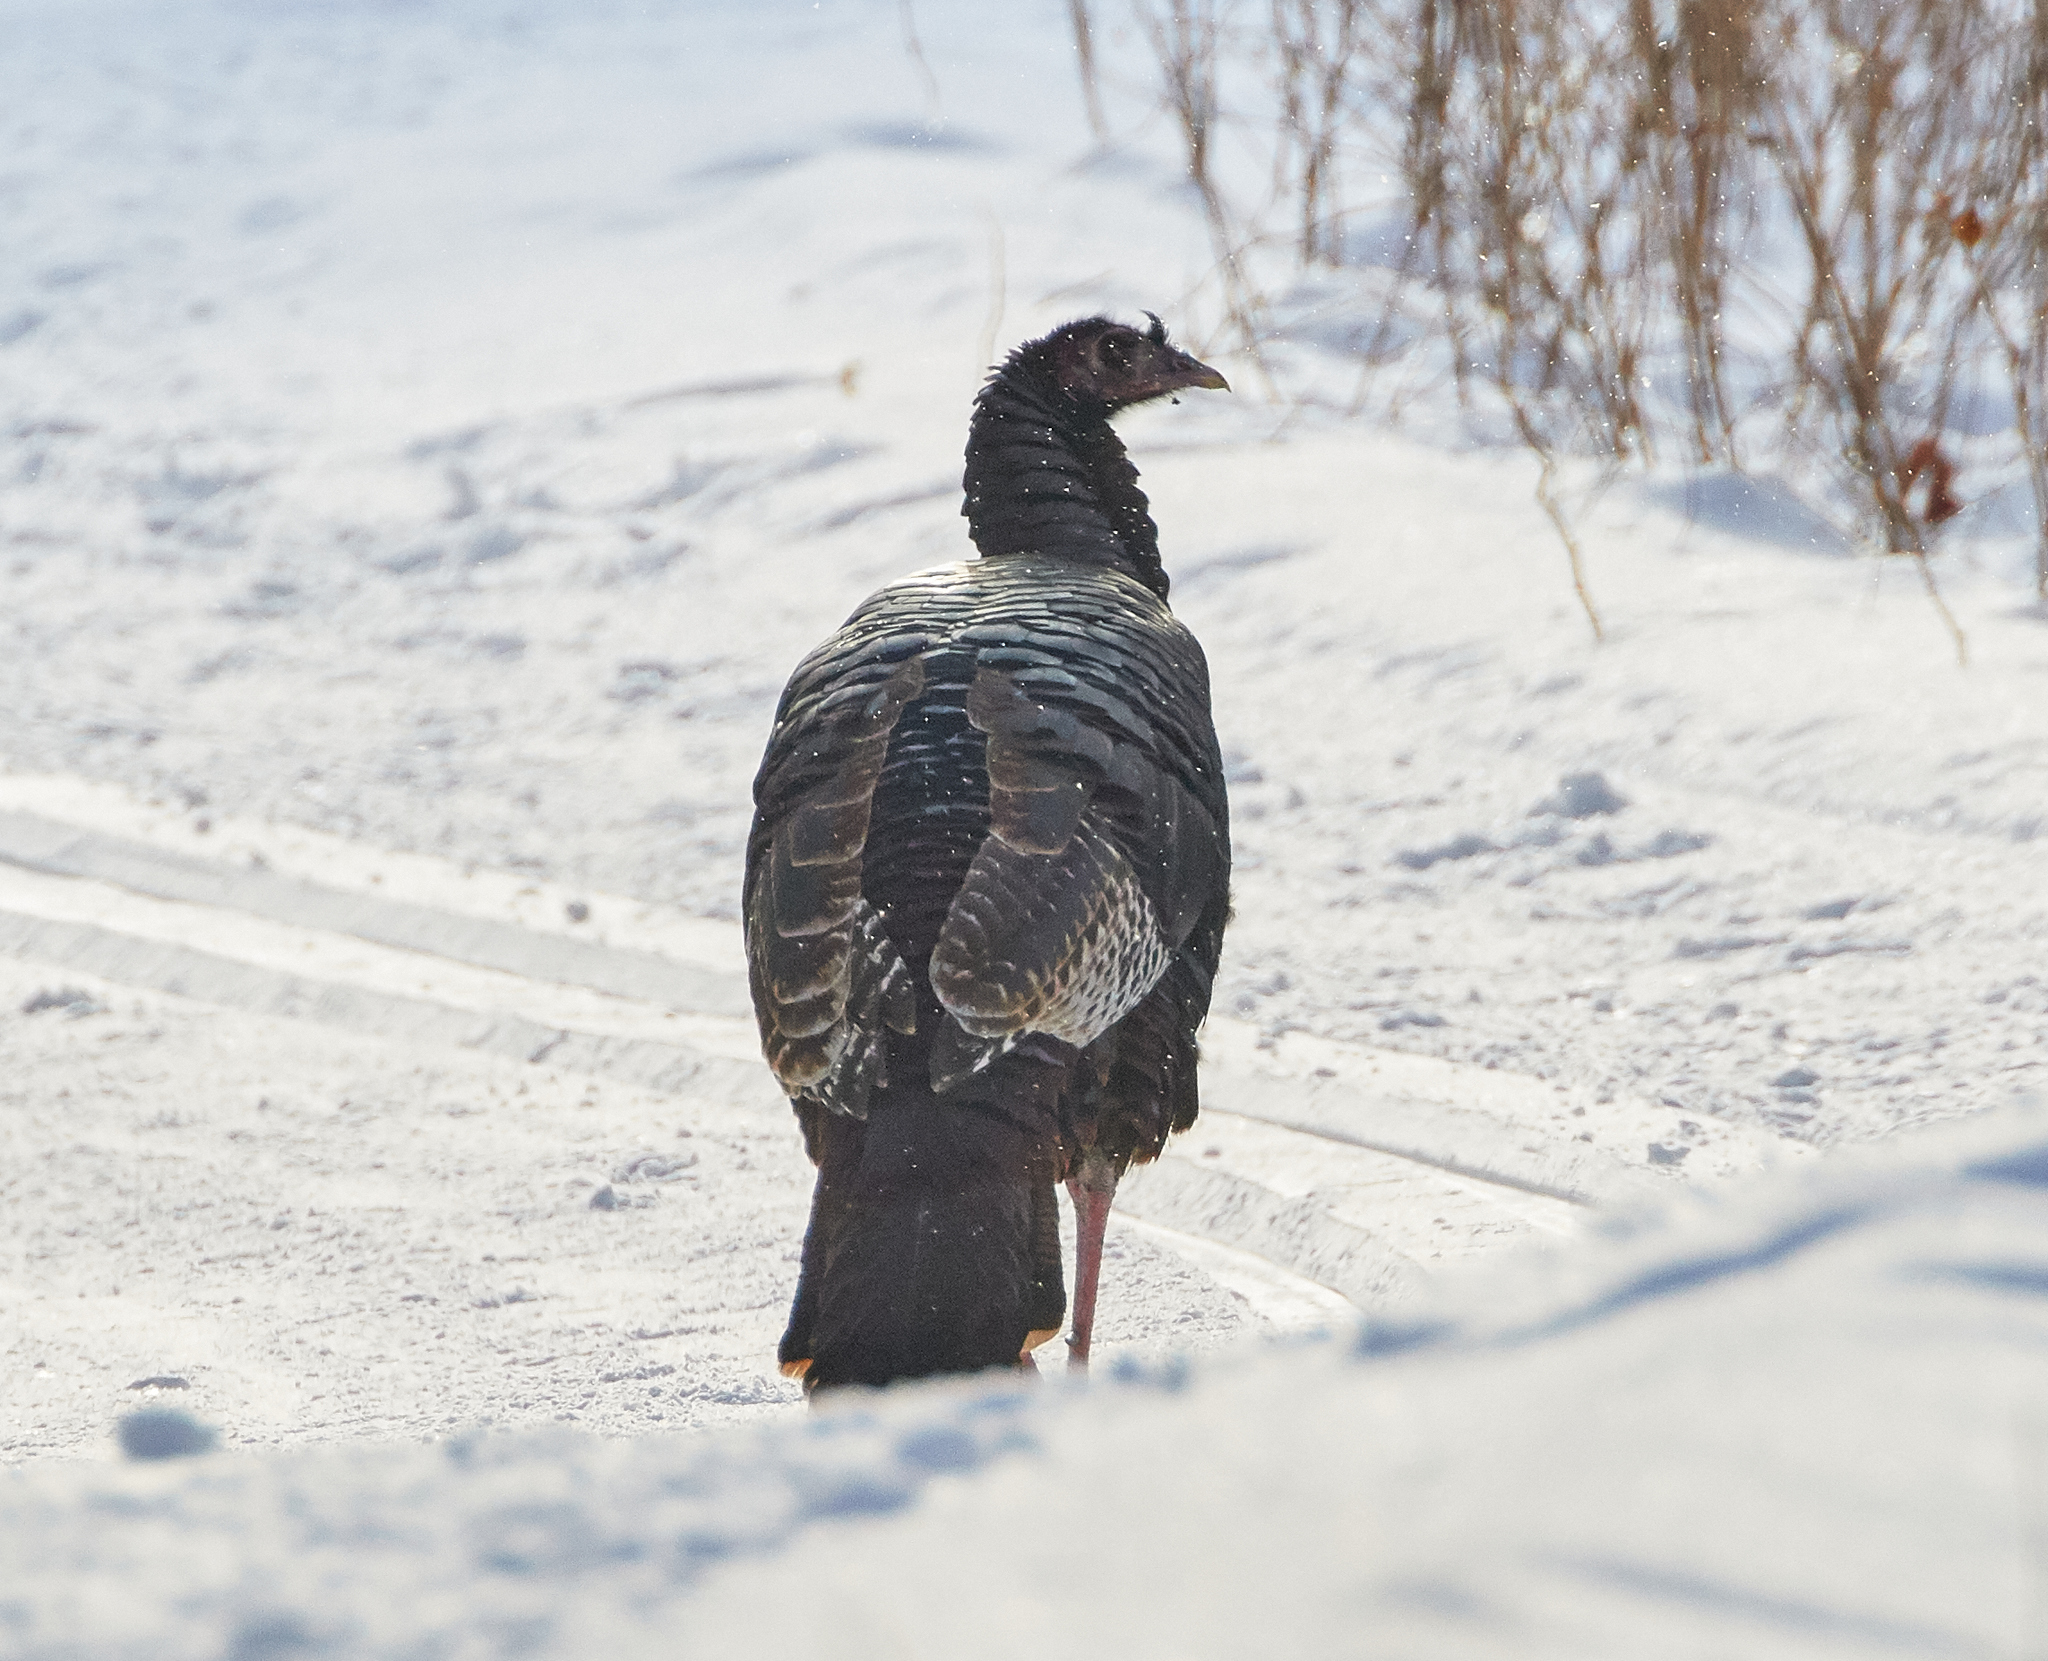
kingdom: Animalia
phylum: Chordata
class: Aves
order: Galliformes
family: Phasianidae
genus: Meleagris
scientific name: Meleagris gallopavo
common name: Wild turkey
